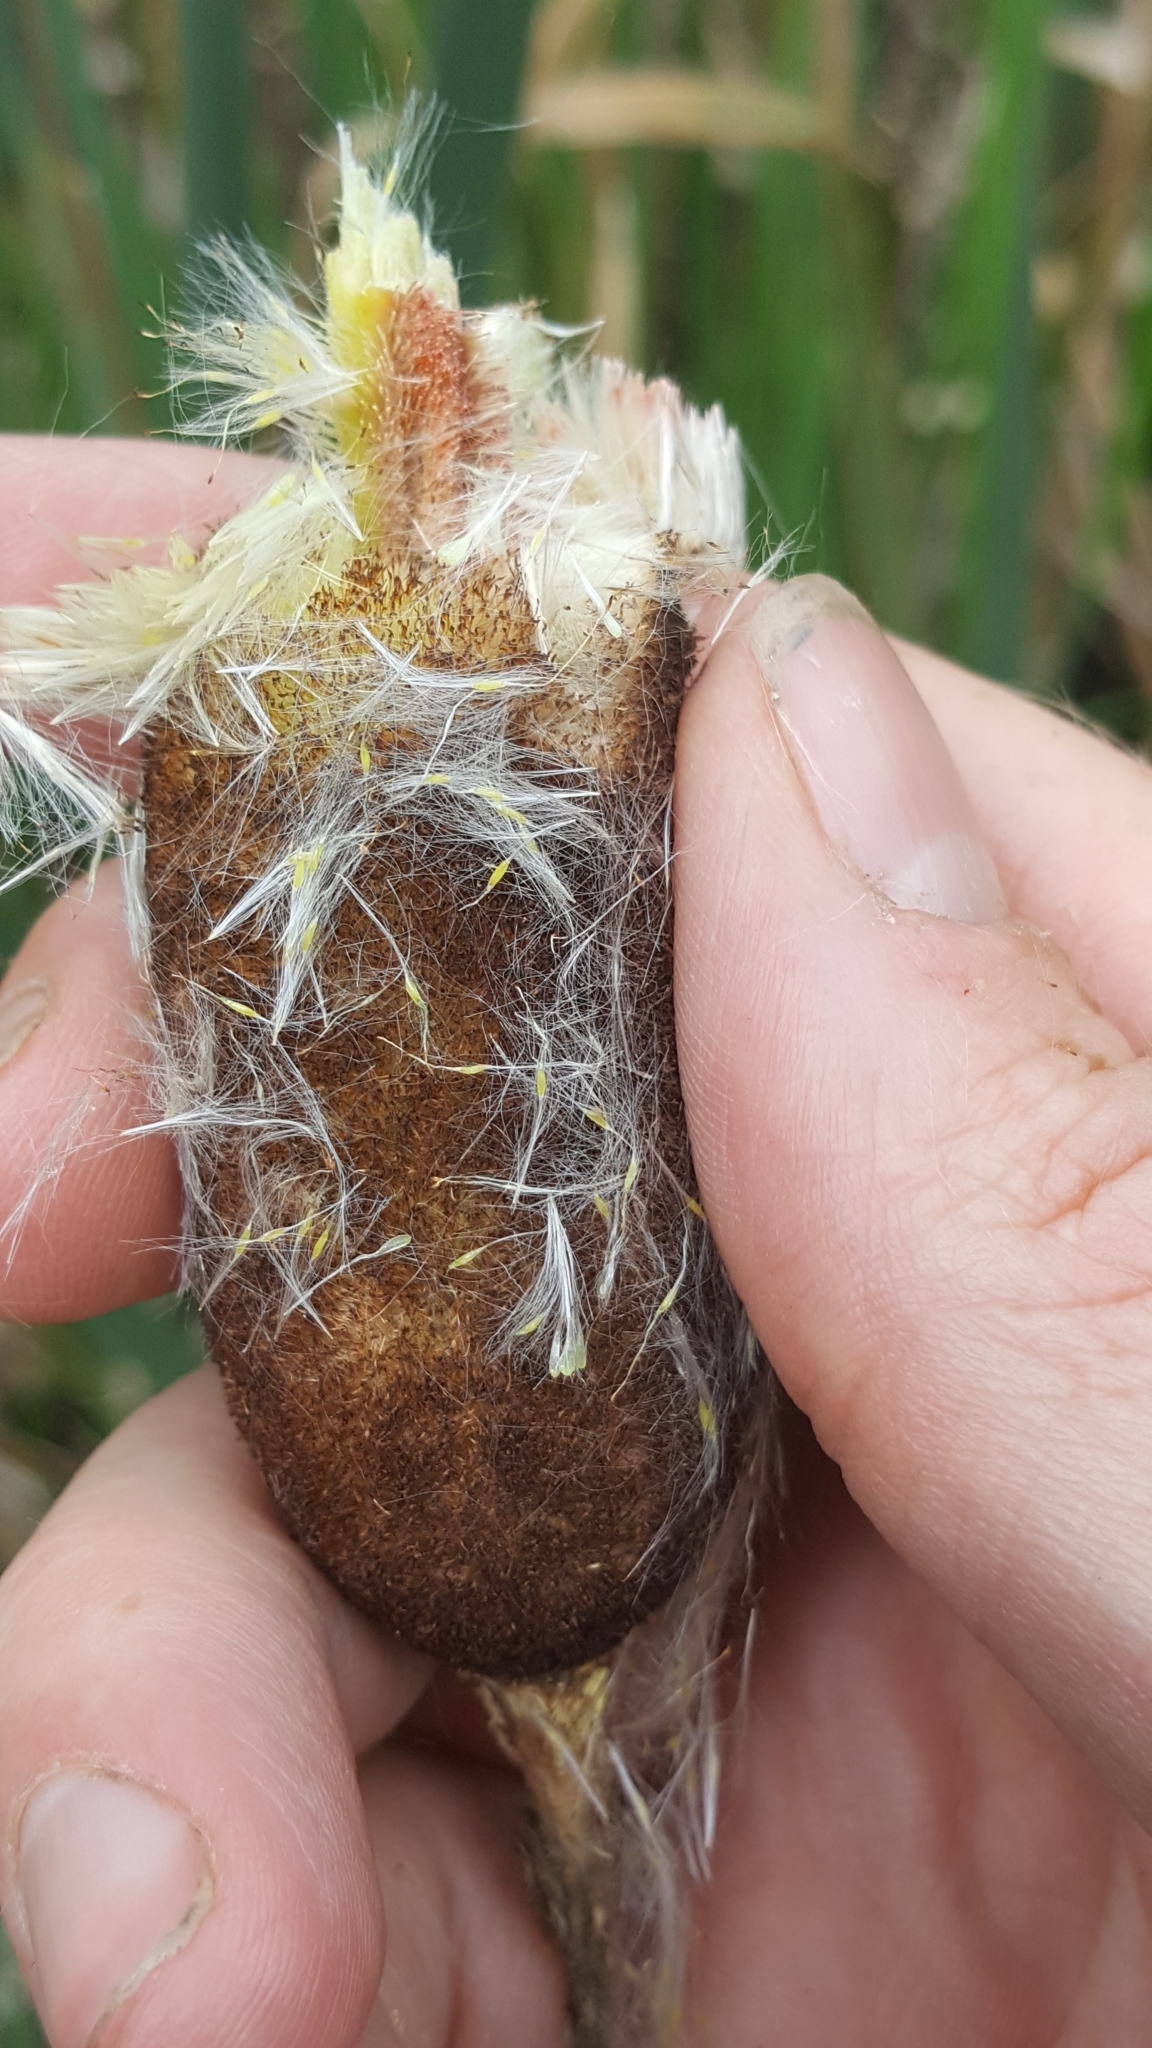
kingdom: Plantae
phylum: Tracheophyta
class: Liliopsida
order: Poales
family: Typhaceae
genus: Typha
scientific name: Typha latifolia
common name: Broadleaf cattail
